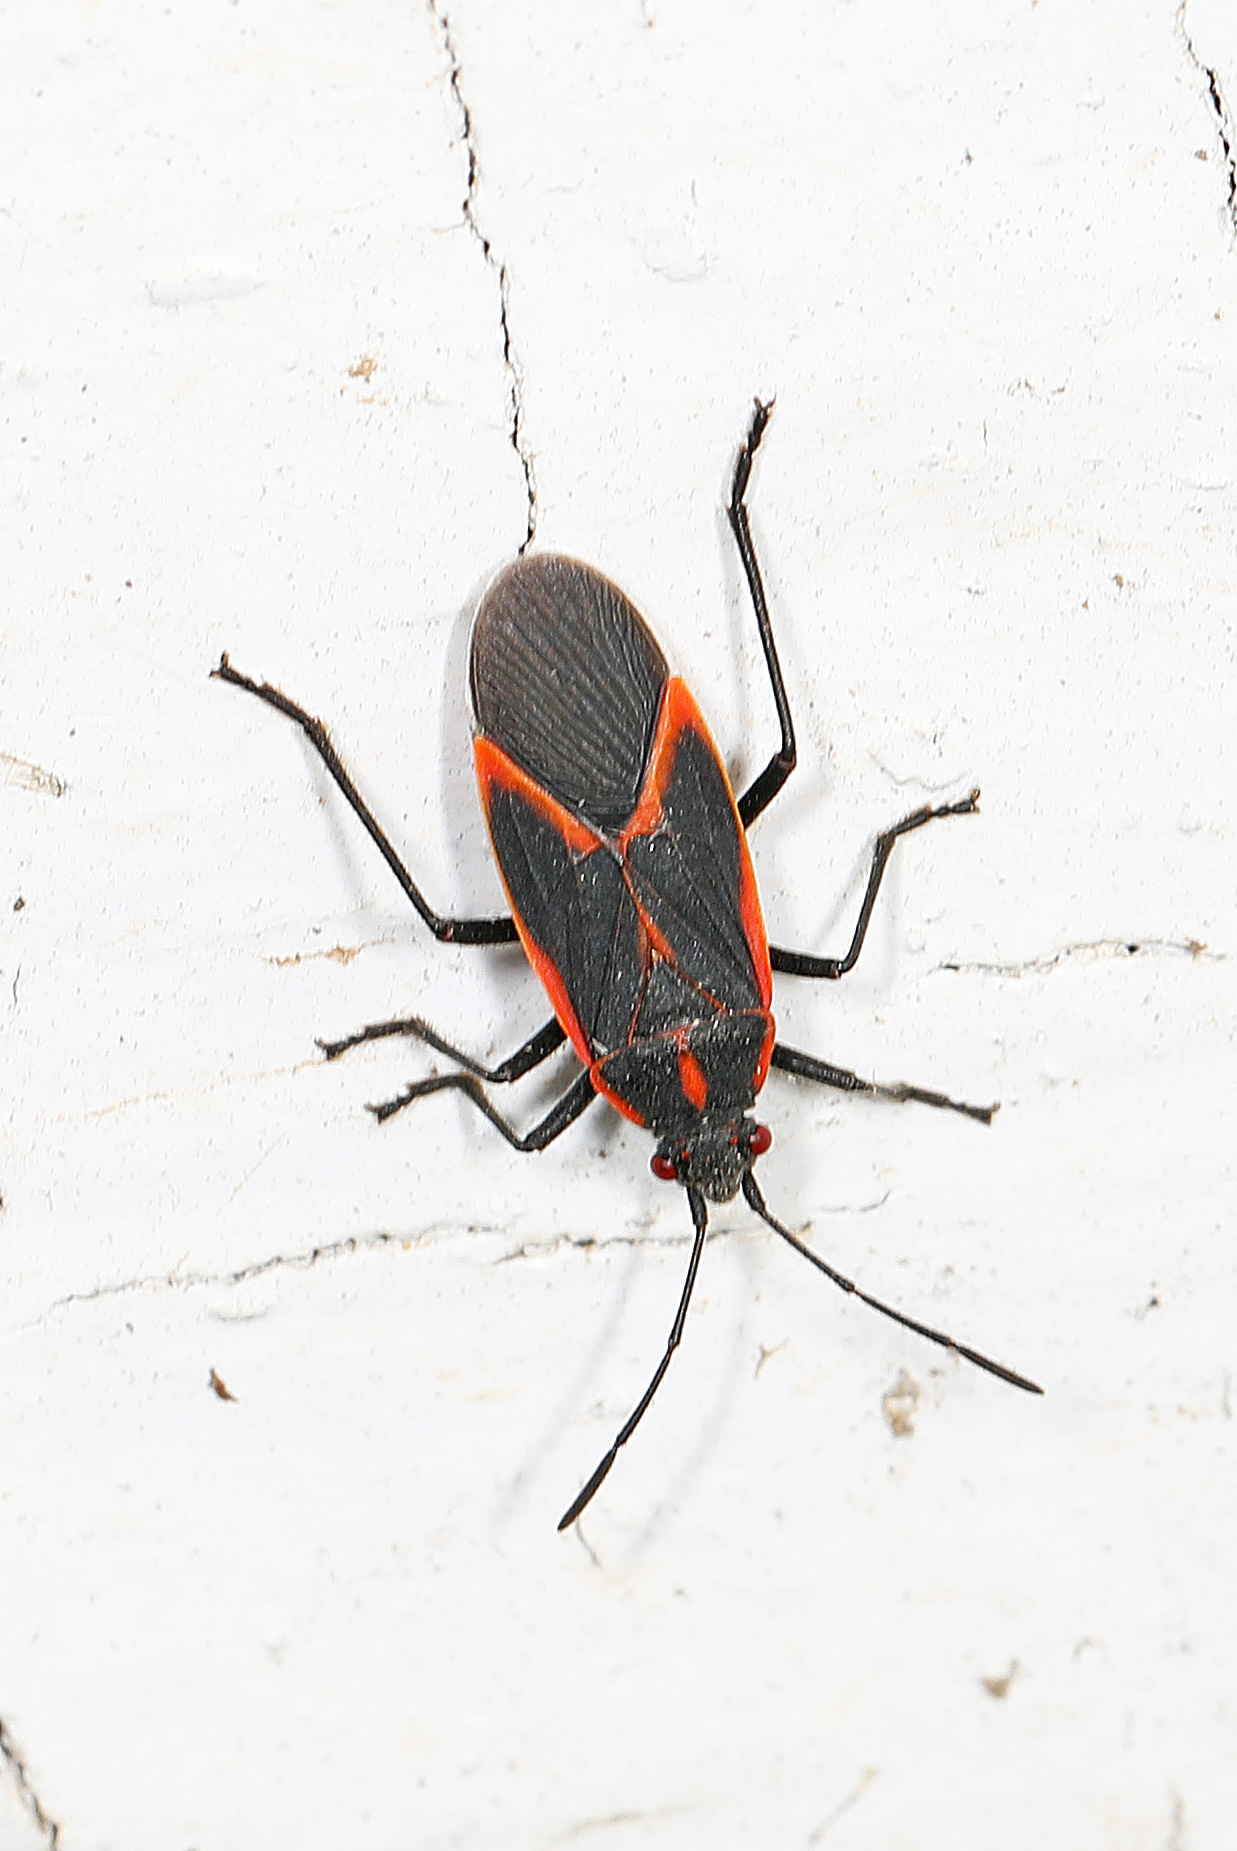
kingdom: Animalia
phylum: Arthropoda
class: Insecta
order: Hemiptera
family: Rhopalidae
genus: Boisea
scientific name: Boisea trivittata
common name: Boxelder bug
